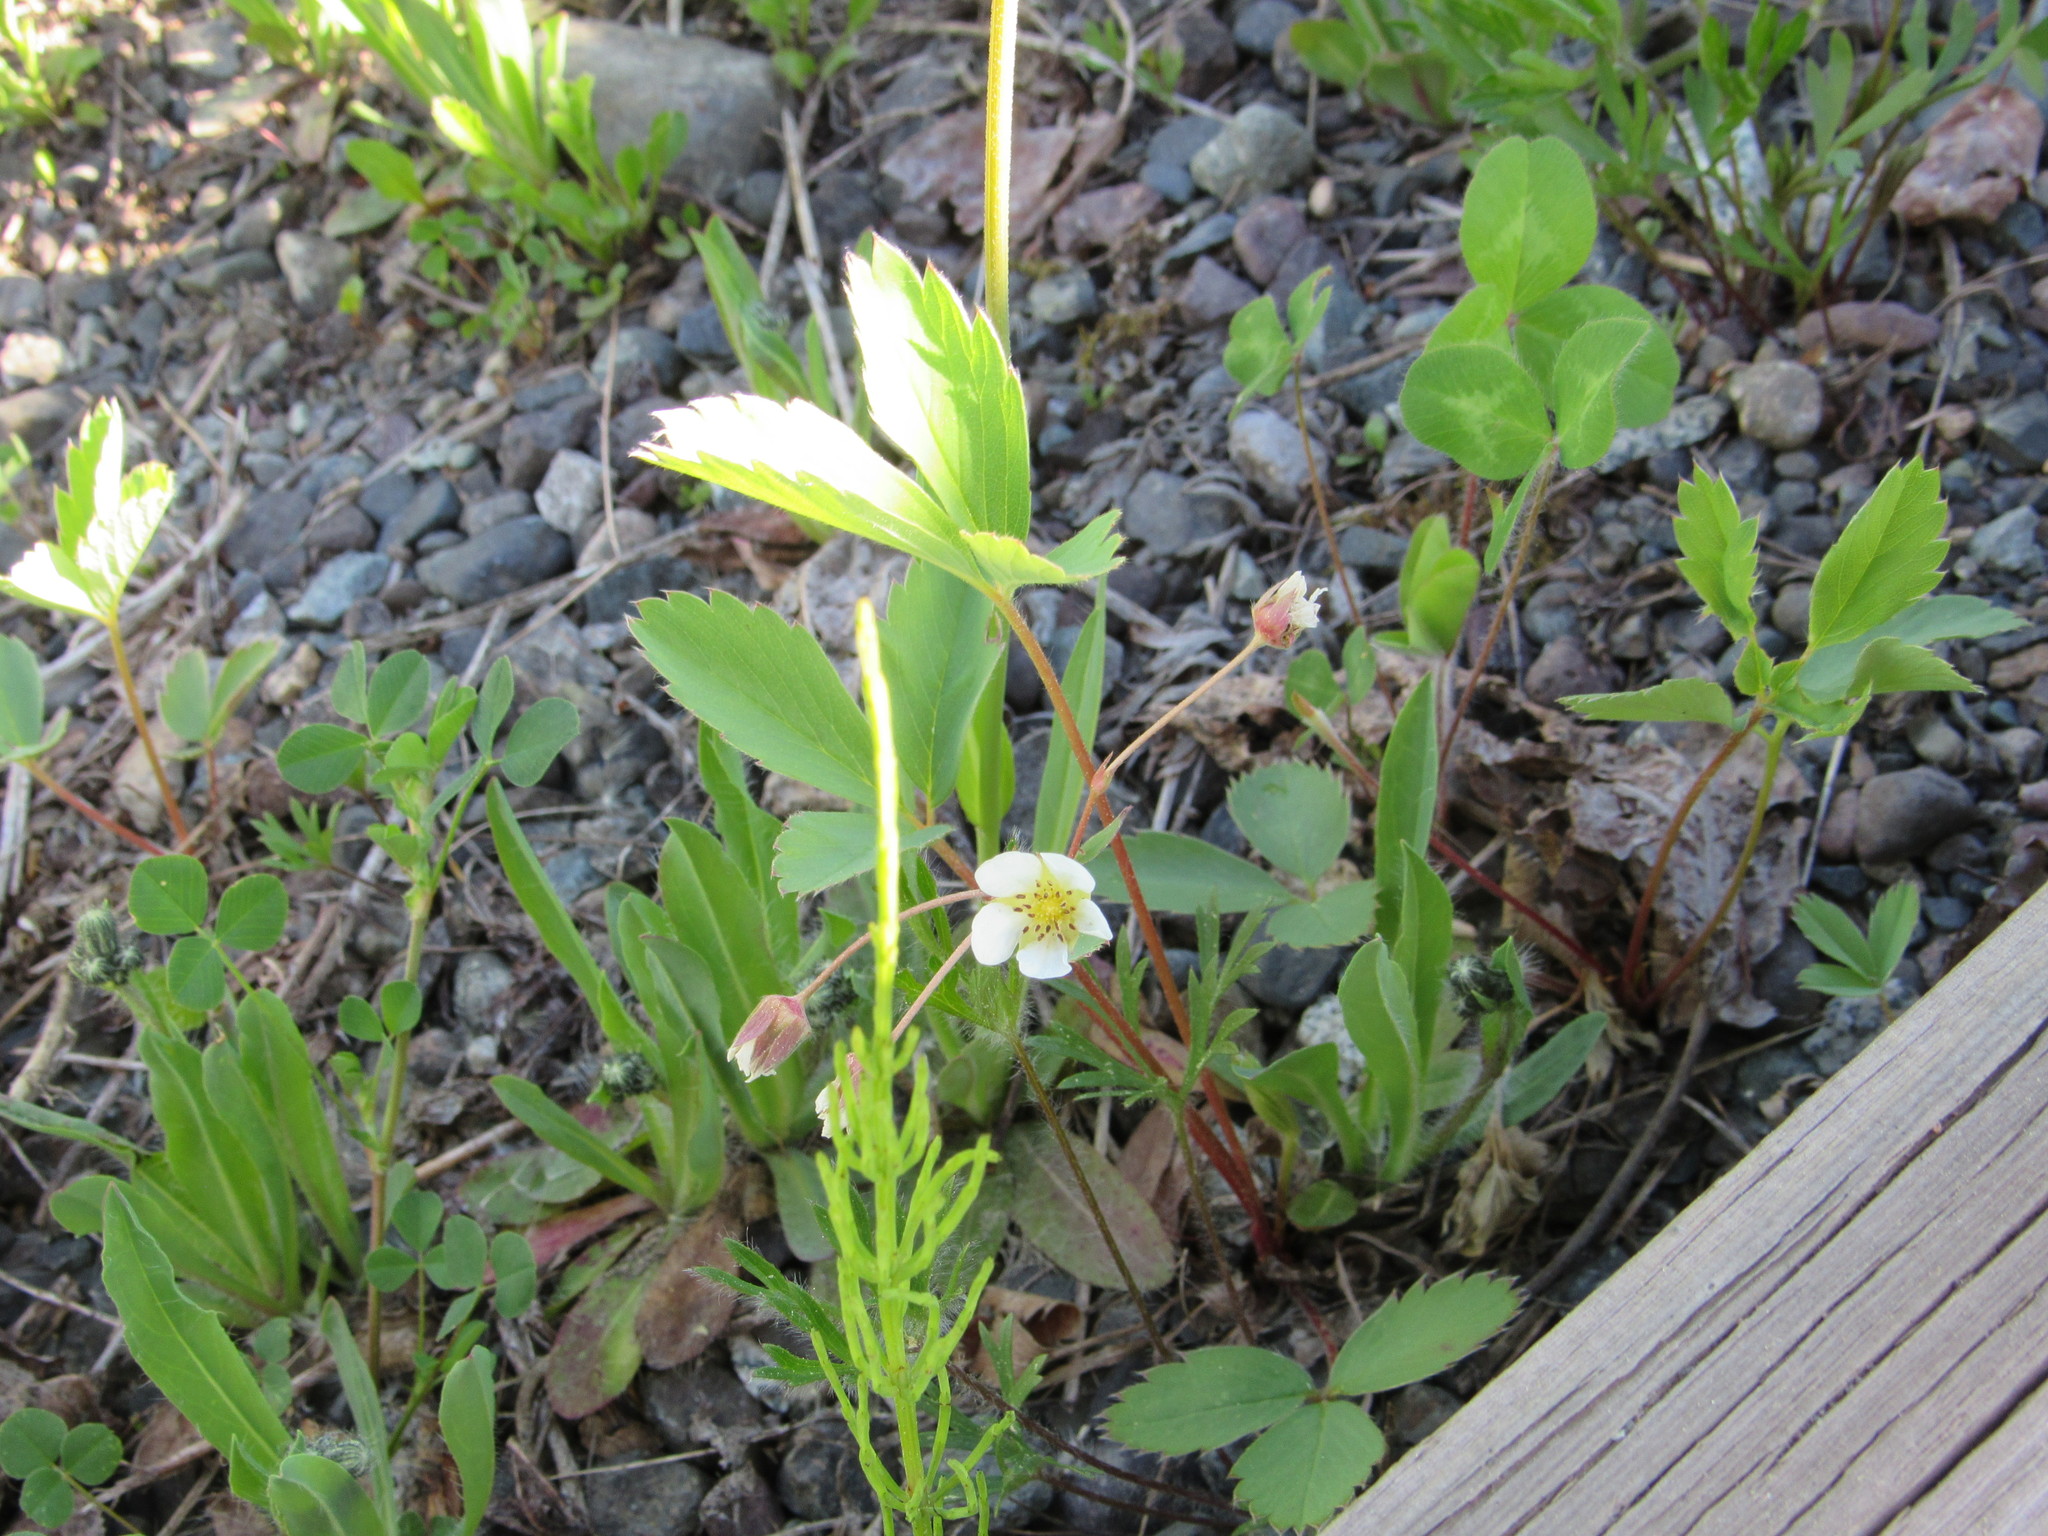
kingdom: Plantae
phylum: Tracheophyta
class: Magnoliopsida
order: Rosales
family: Rosaceae
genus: Fragaria
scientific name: Fragaria virginiana
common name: Thickleaved wild strawberry
